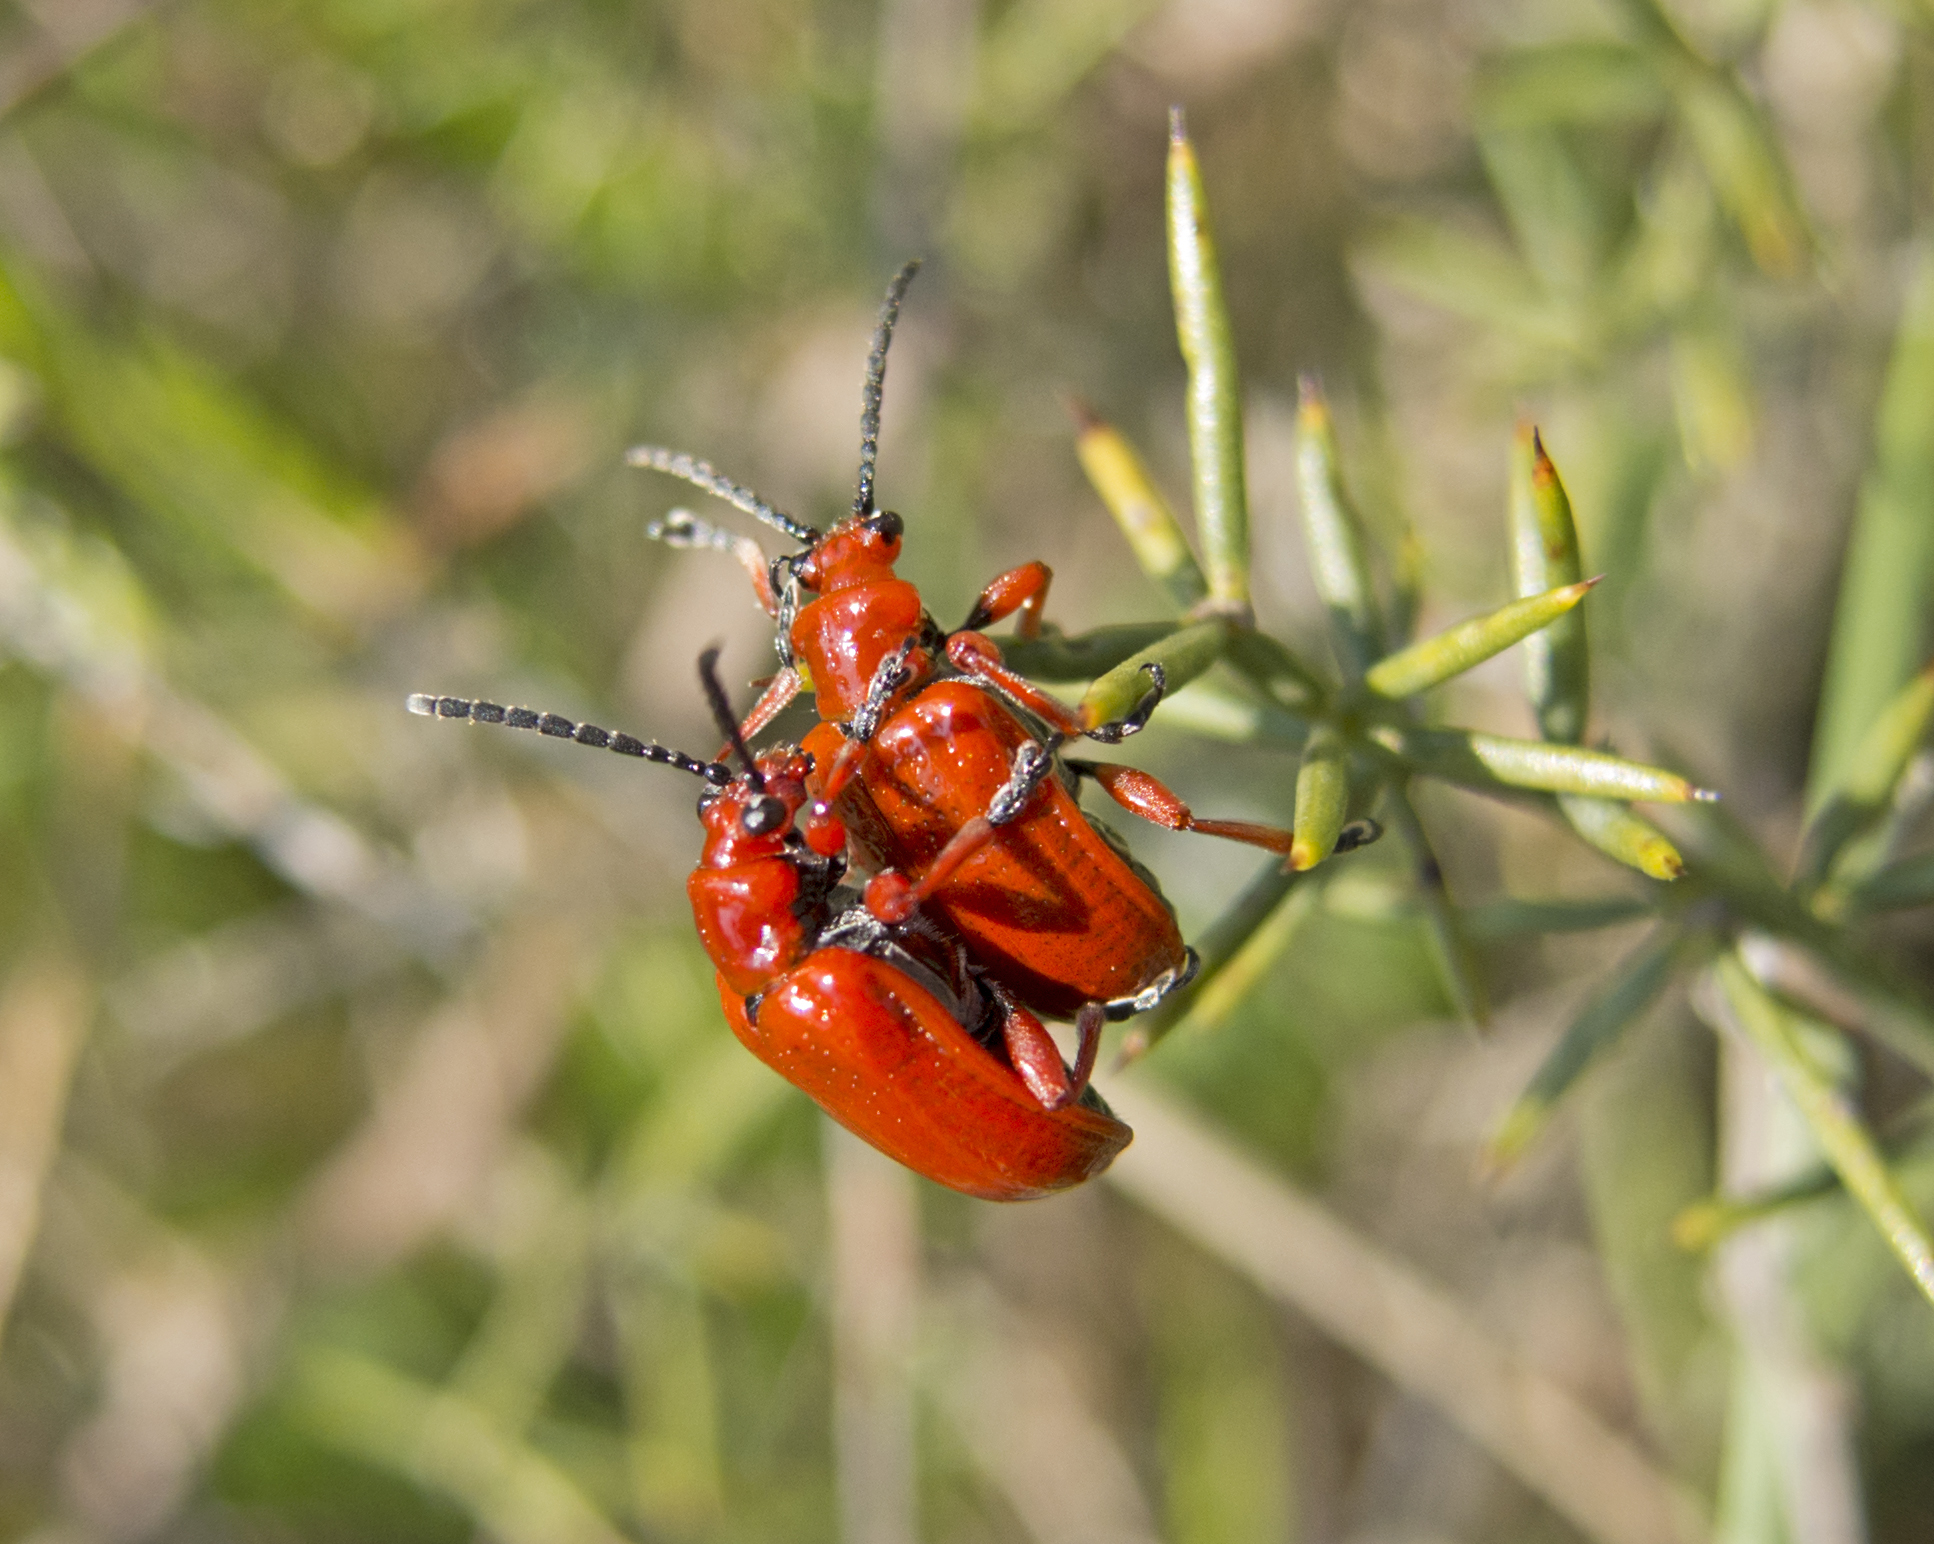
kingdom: Animalia
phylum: Arthropoda
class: Insecta
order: Coleoptera
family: Chrysomelidae
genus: Lilioceris
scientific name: Lilioceris faldermanni
